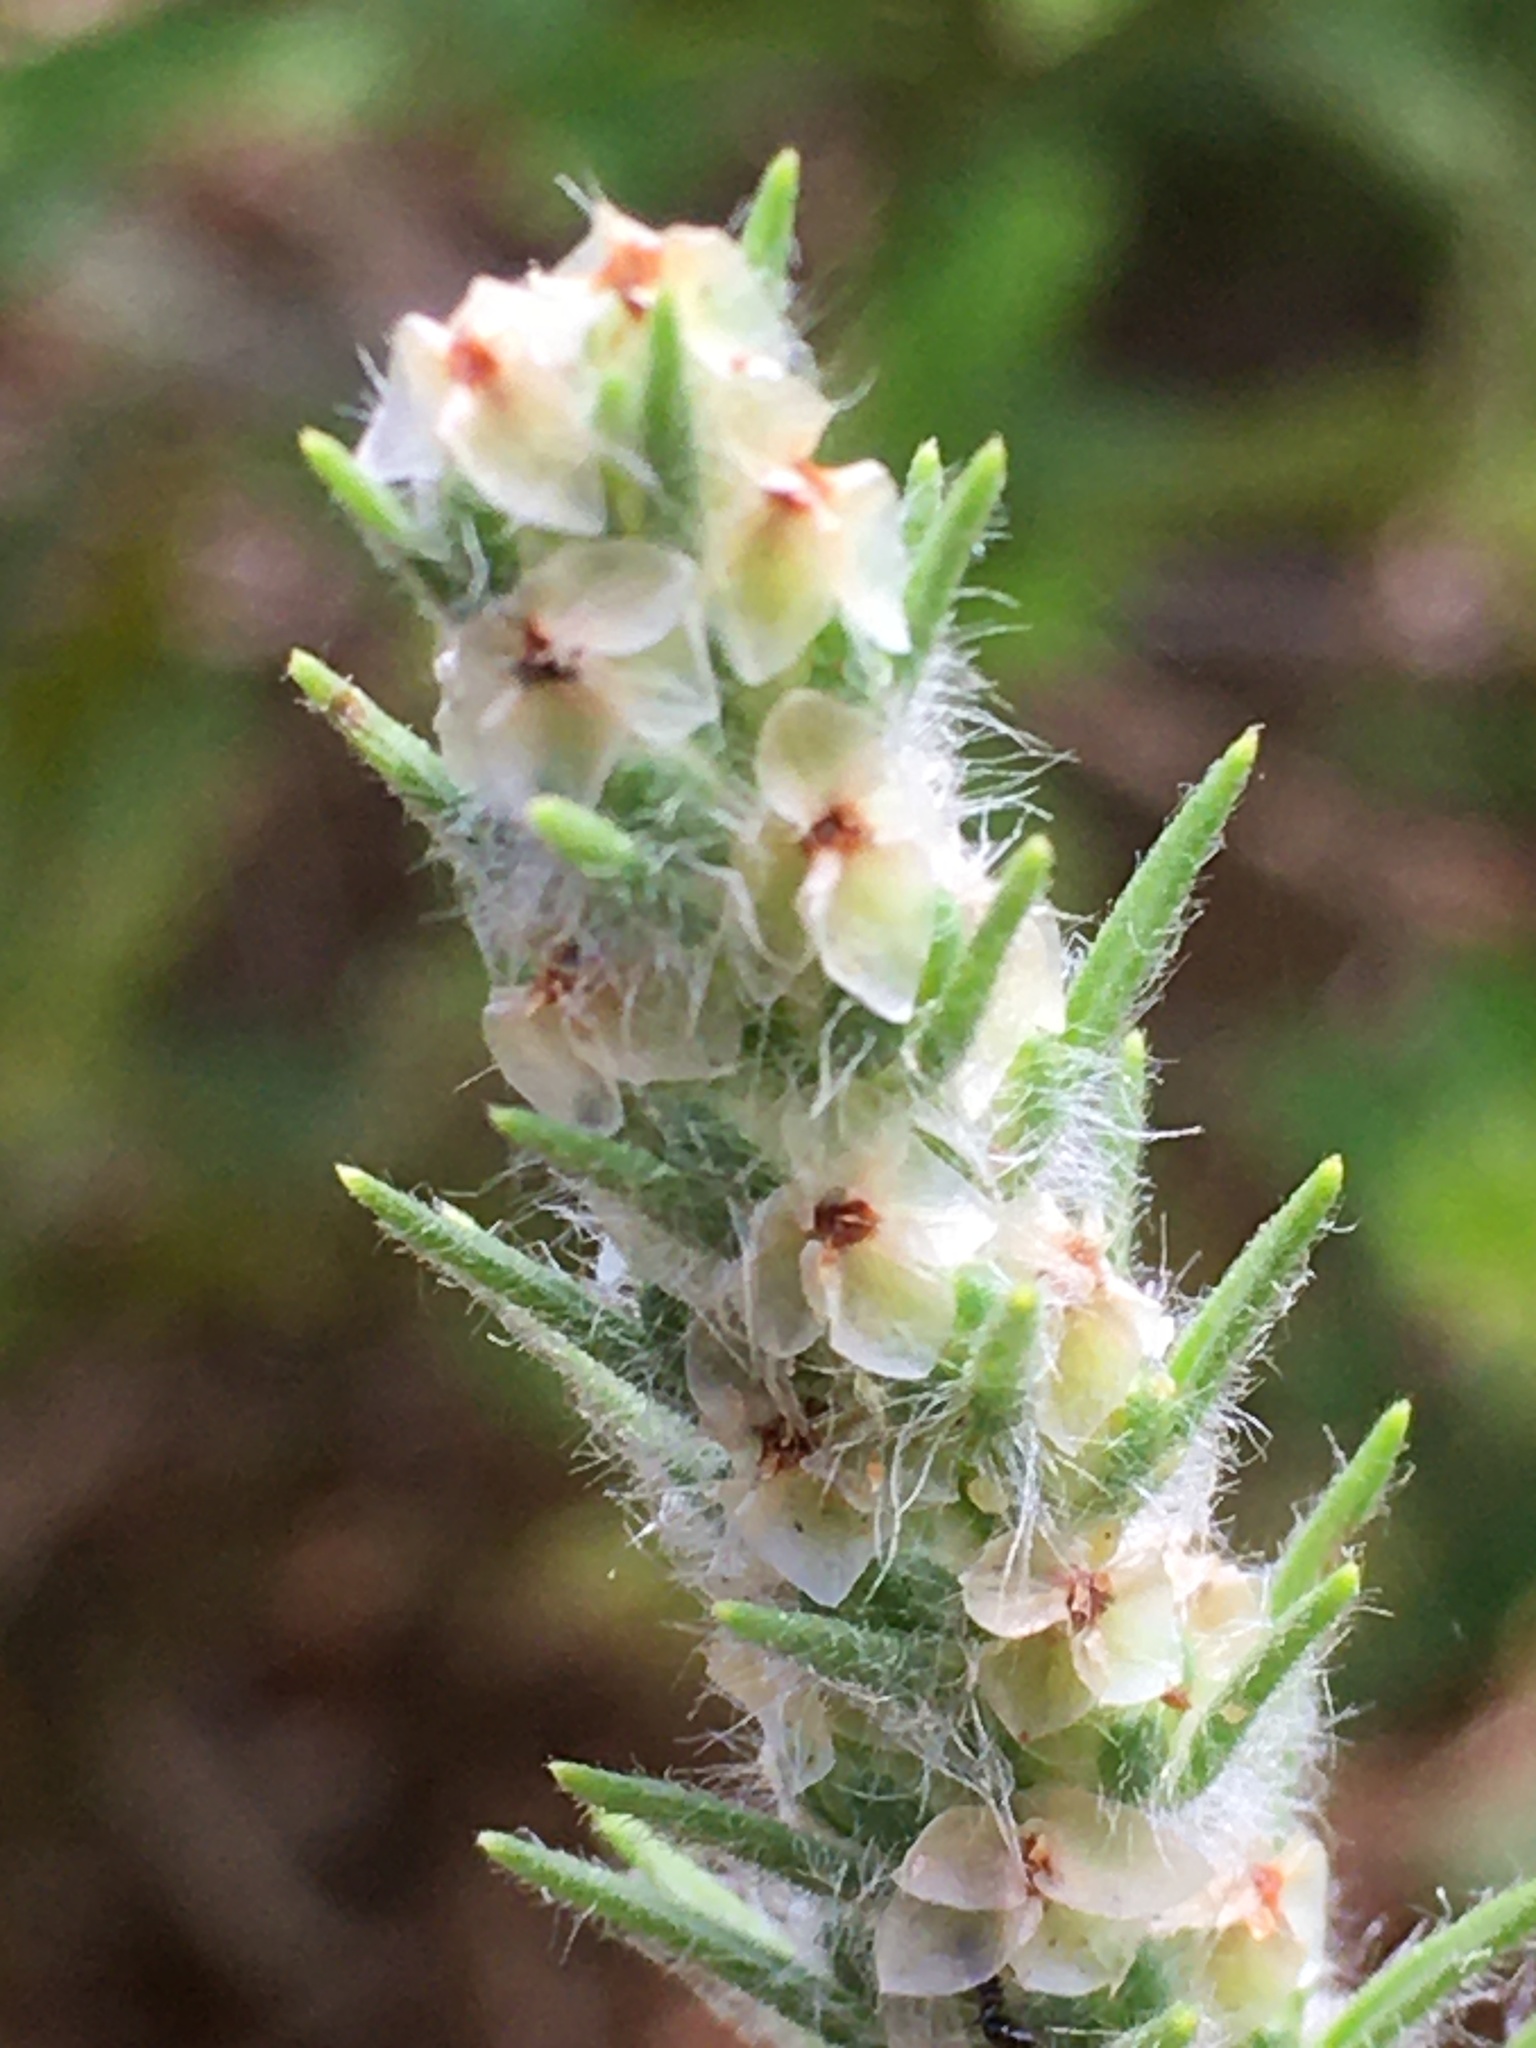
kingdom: Plantae
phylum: Tracheophyta
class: Magnoliopsida
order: Lamiales
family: Plantaginaceae
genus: Plantago
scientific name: Plantago aristata
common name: Bracted plantain
